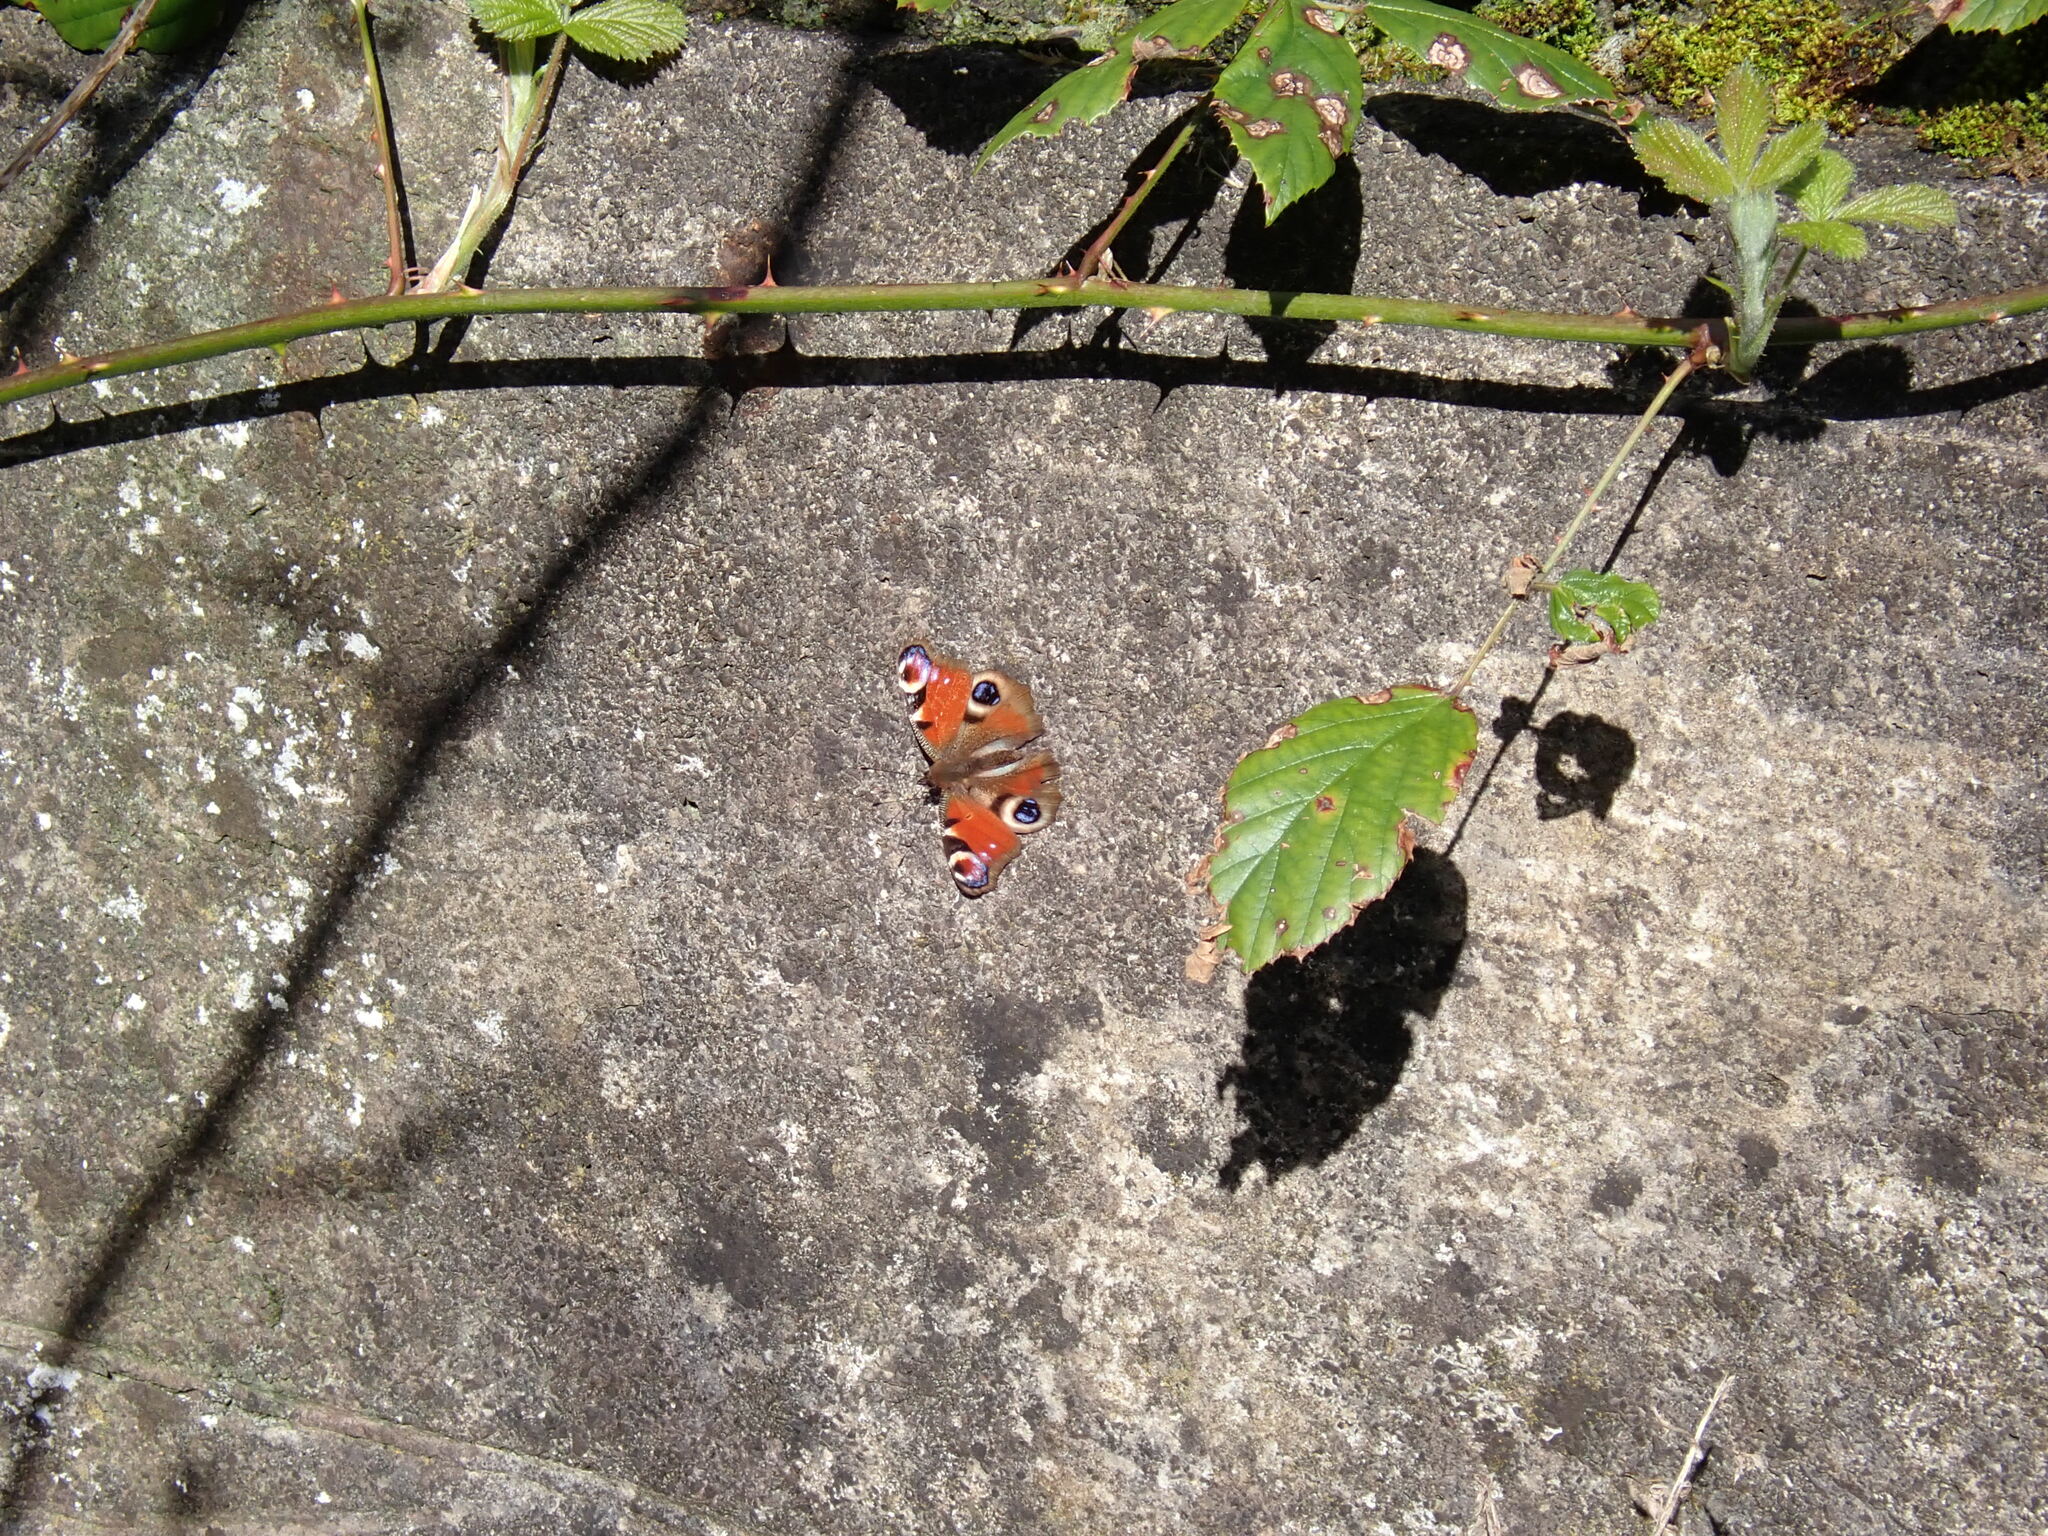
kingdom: Animalia
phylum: Arthropoda
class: Insecta
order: Lepidoptera
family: Nymphalidae
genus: Aglais
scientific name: Aglais io
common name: Peacock
